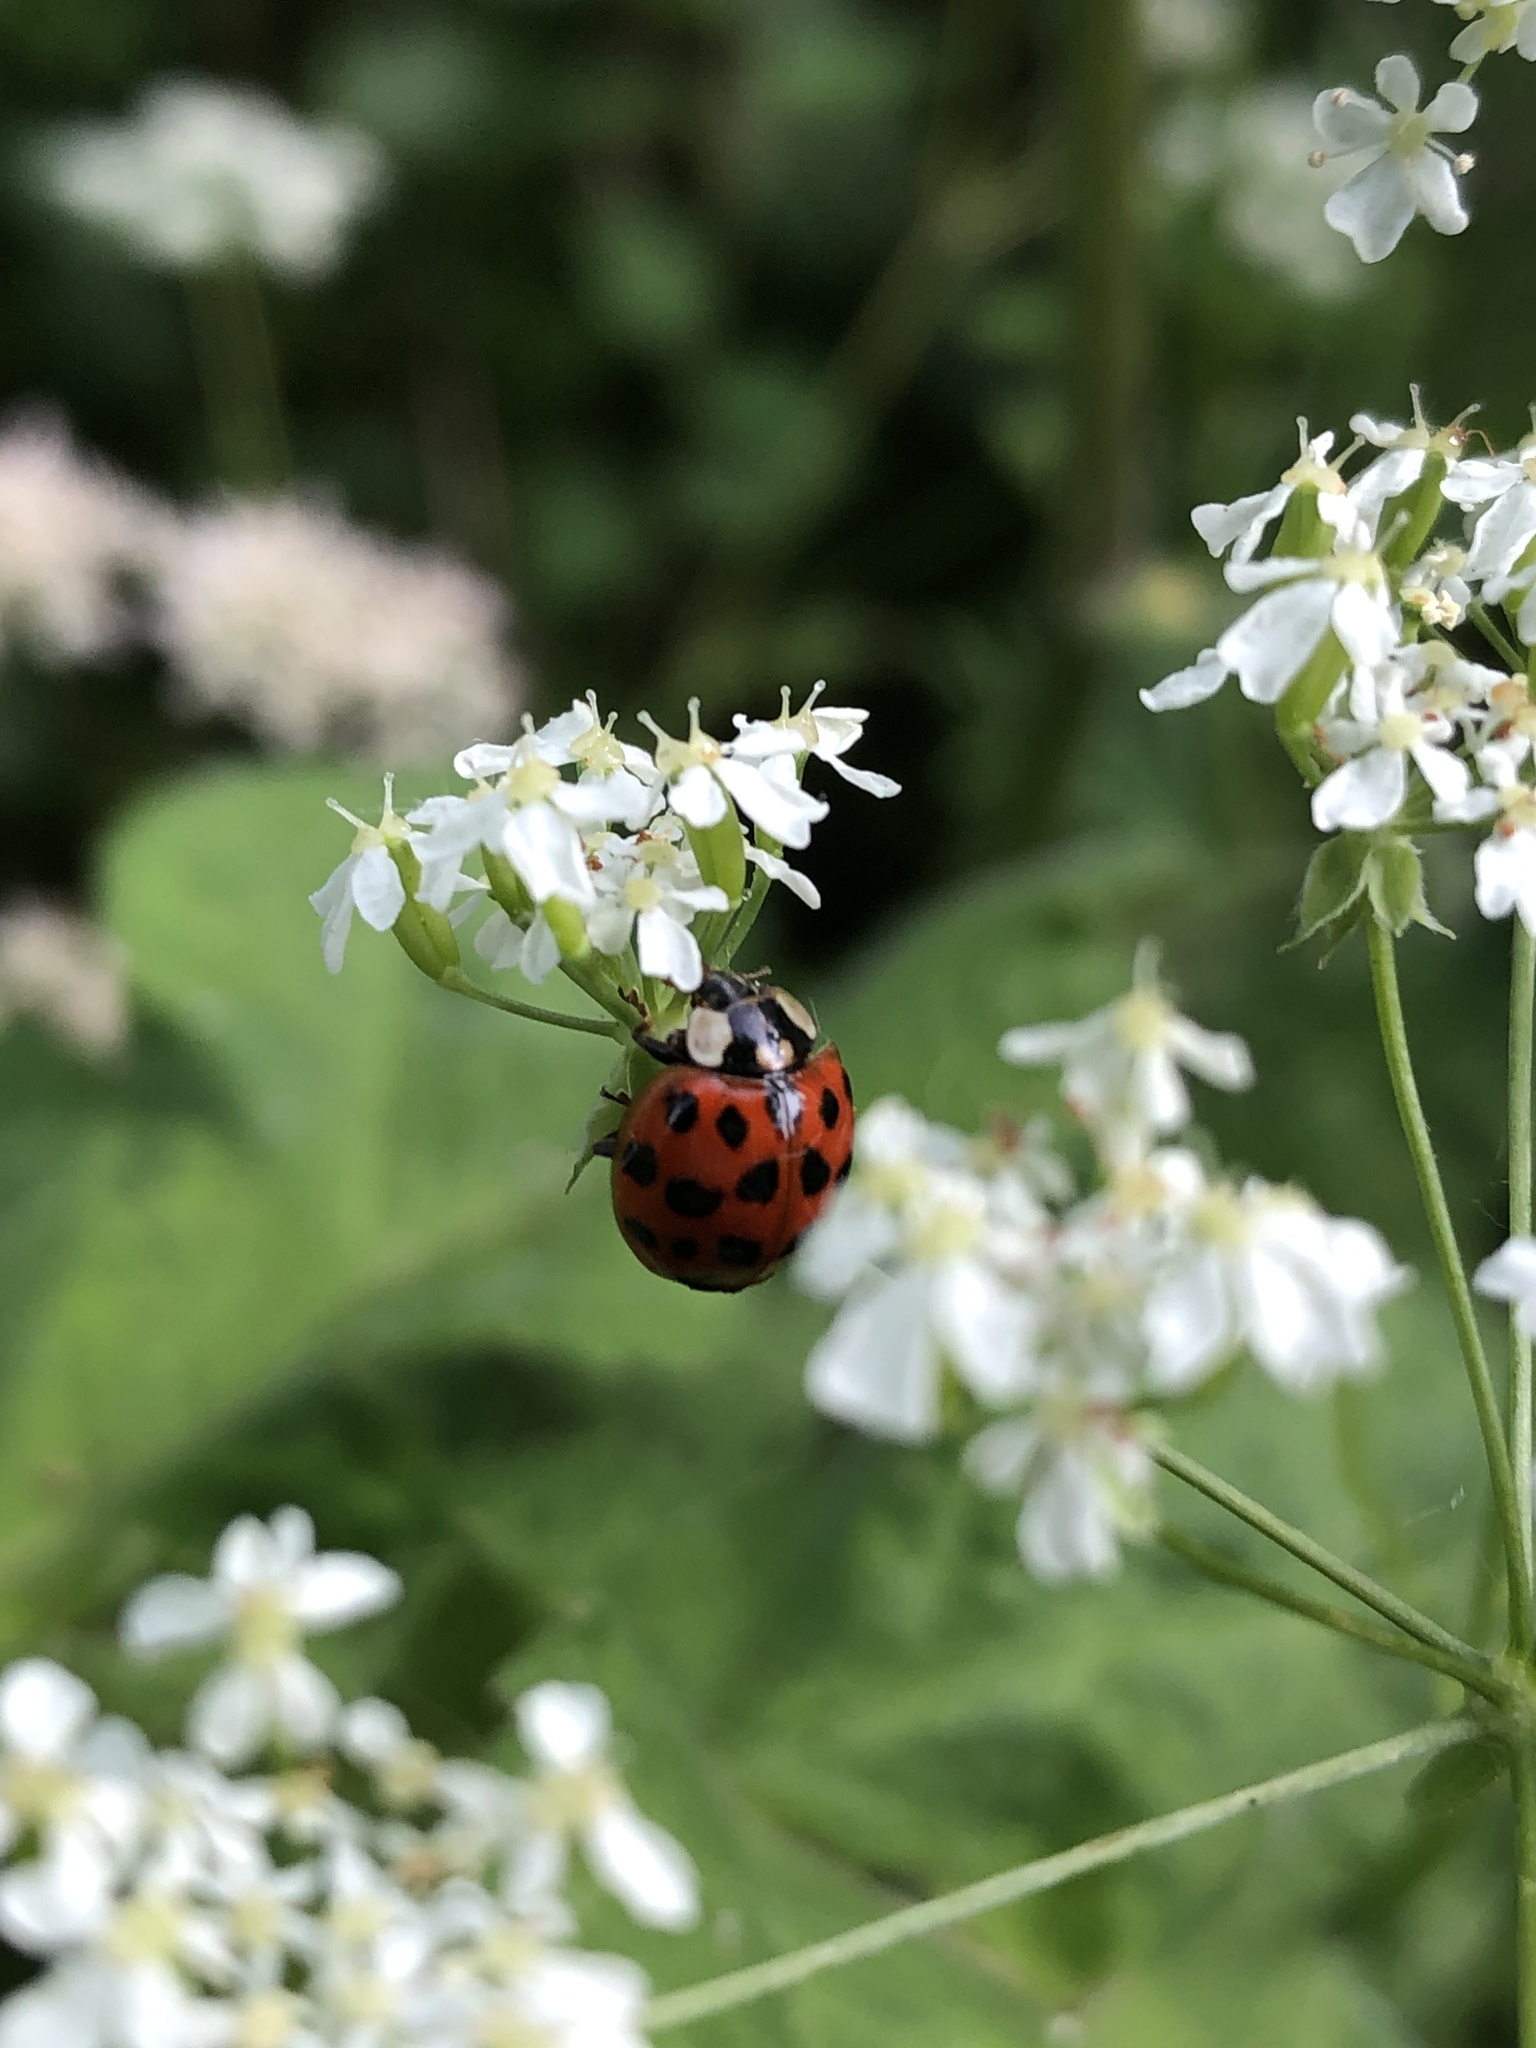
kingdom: Animalia
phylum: Arthropoda
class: Insecta
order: Coleoptera
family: Coccinellidae
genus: Harmonia
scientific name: Harmonia axyridis
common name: Harlequin ladybird
